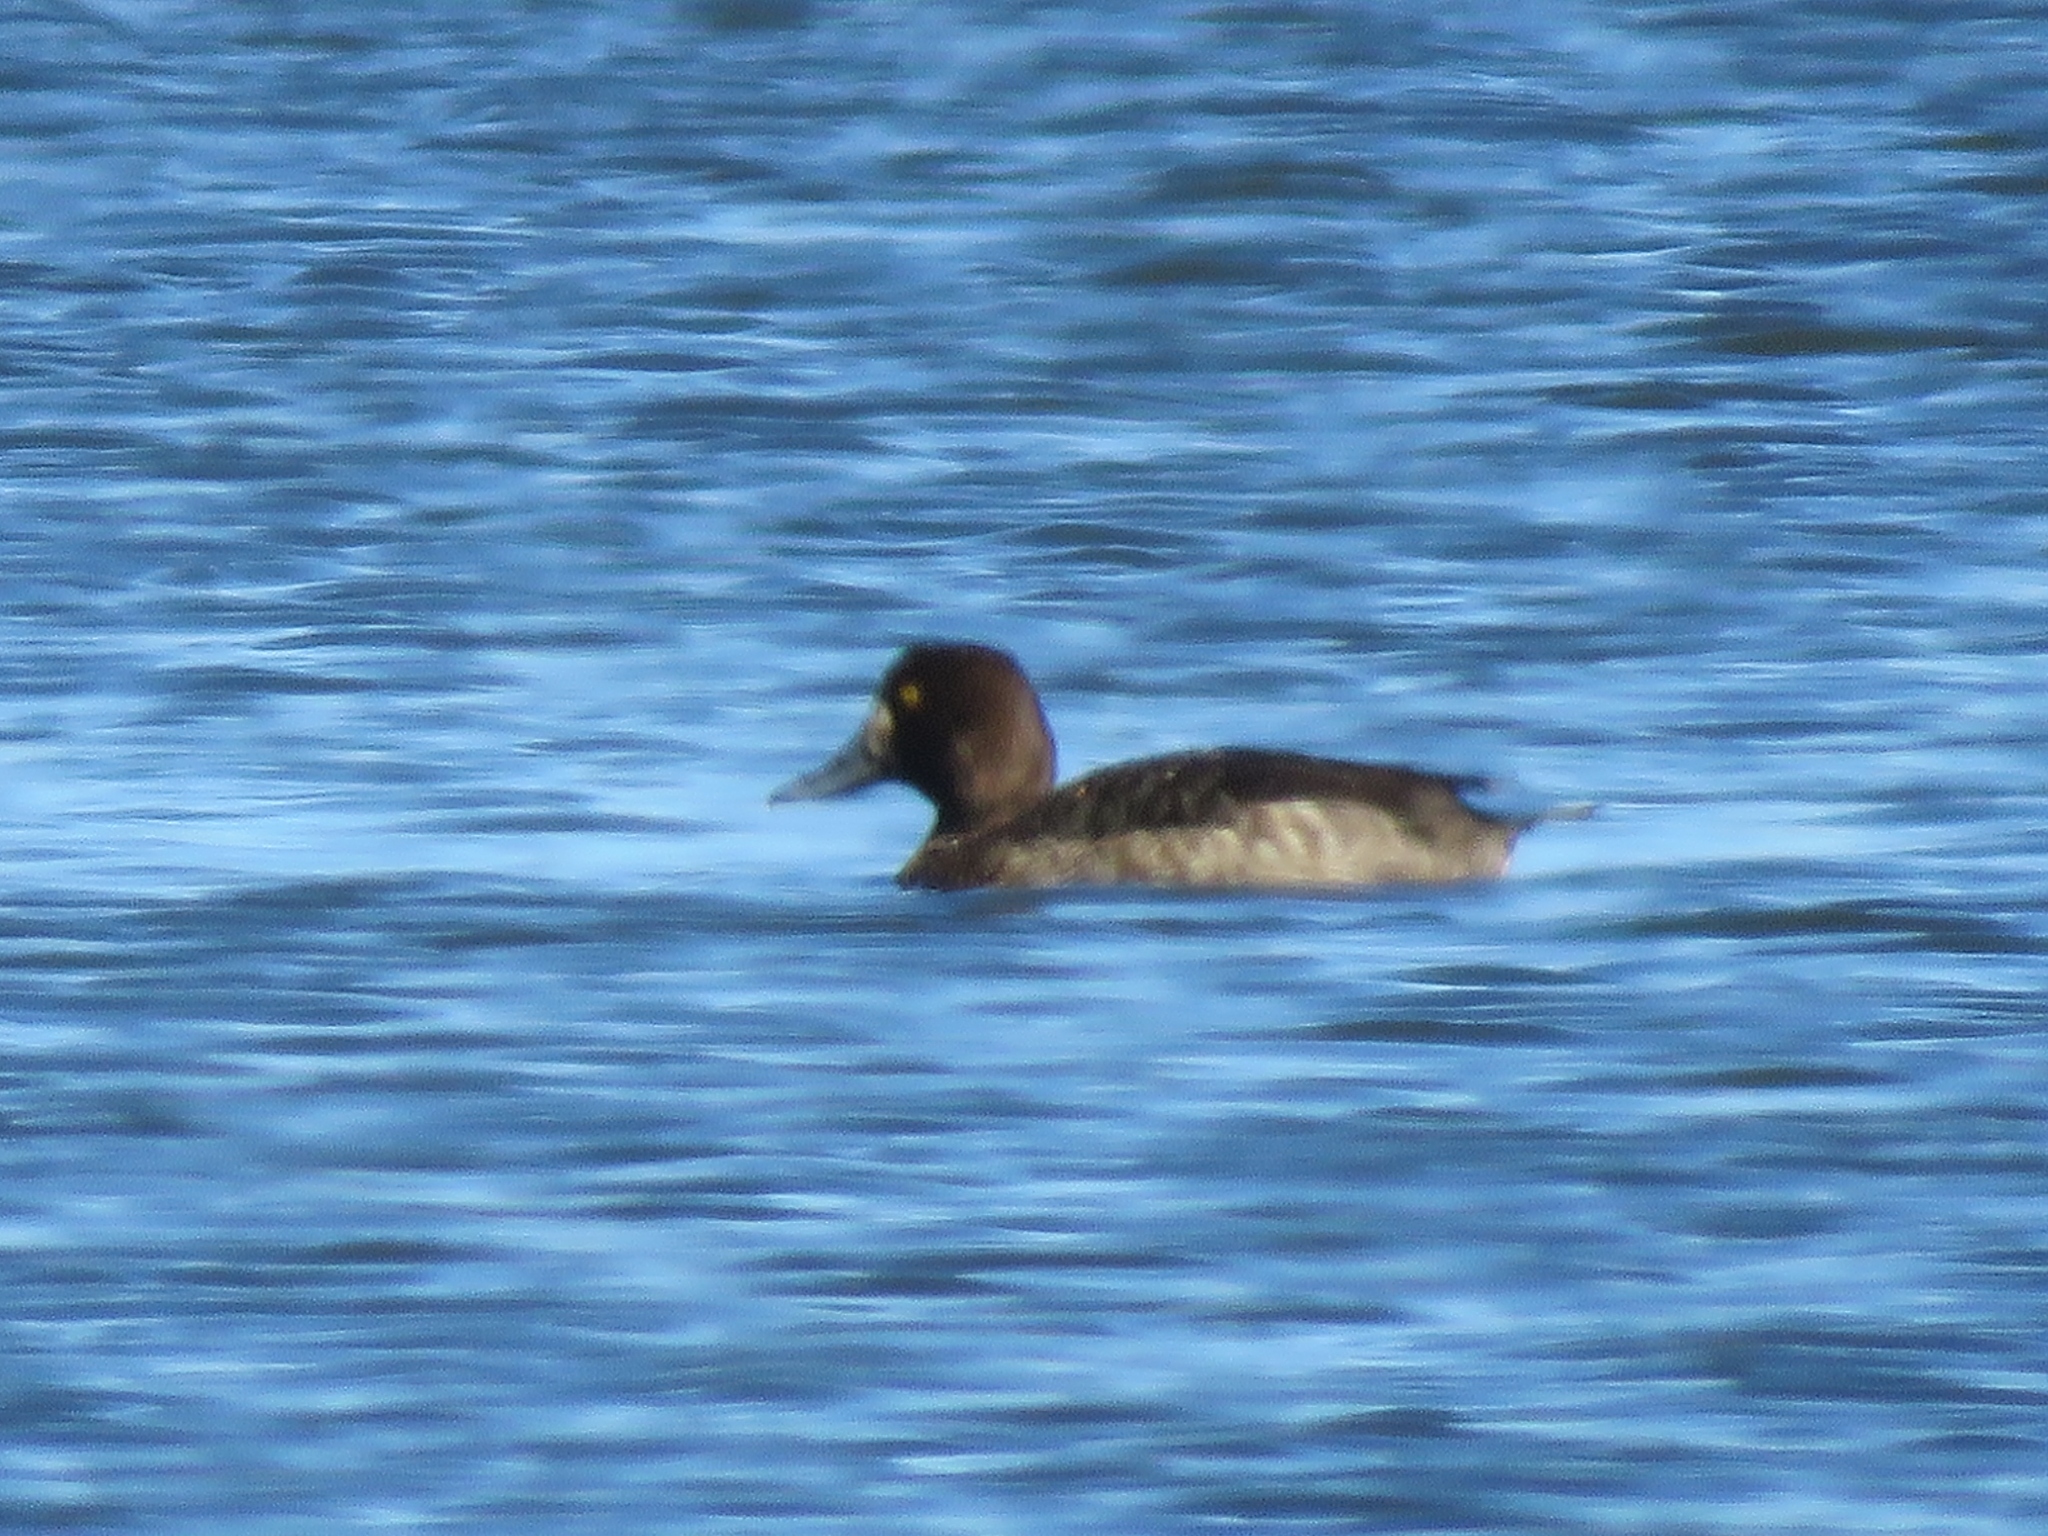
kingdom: Animalia
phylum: Chordata
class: Aves
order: Anseriformes
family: Anatidae
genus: Aythya
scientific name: Aythya marila
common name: Greater scaup
